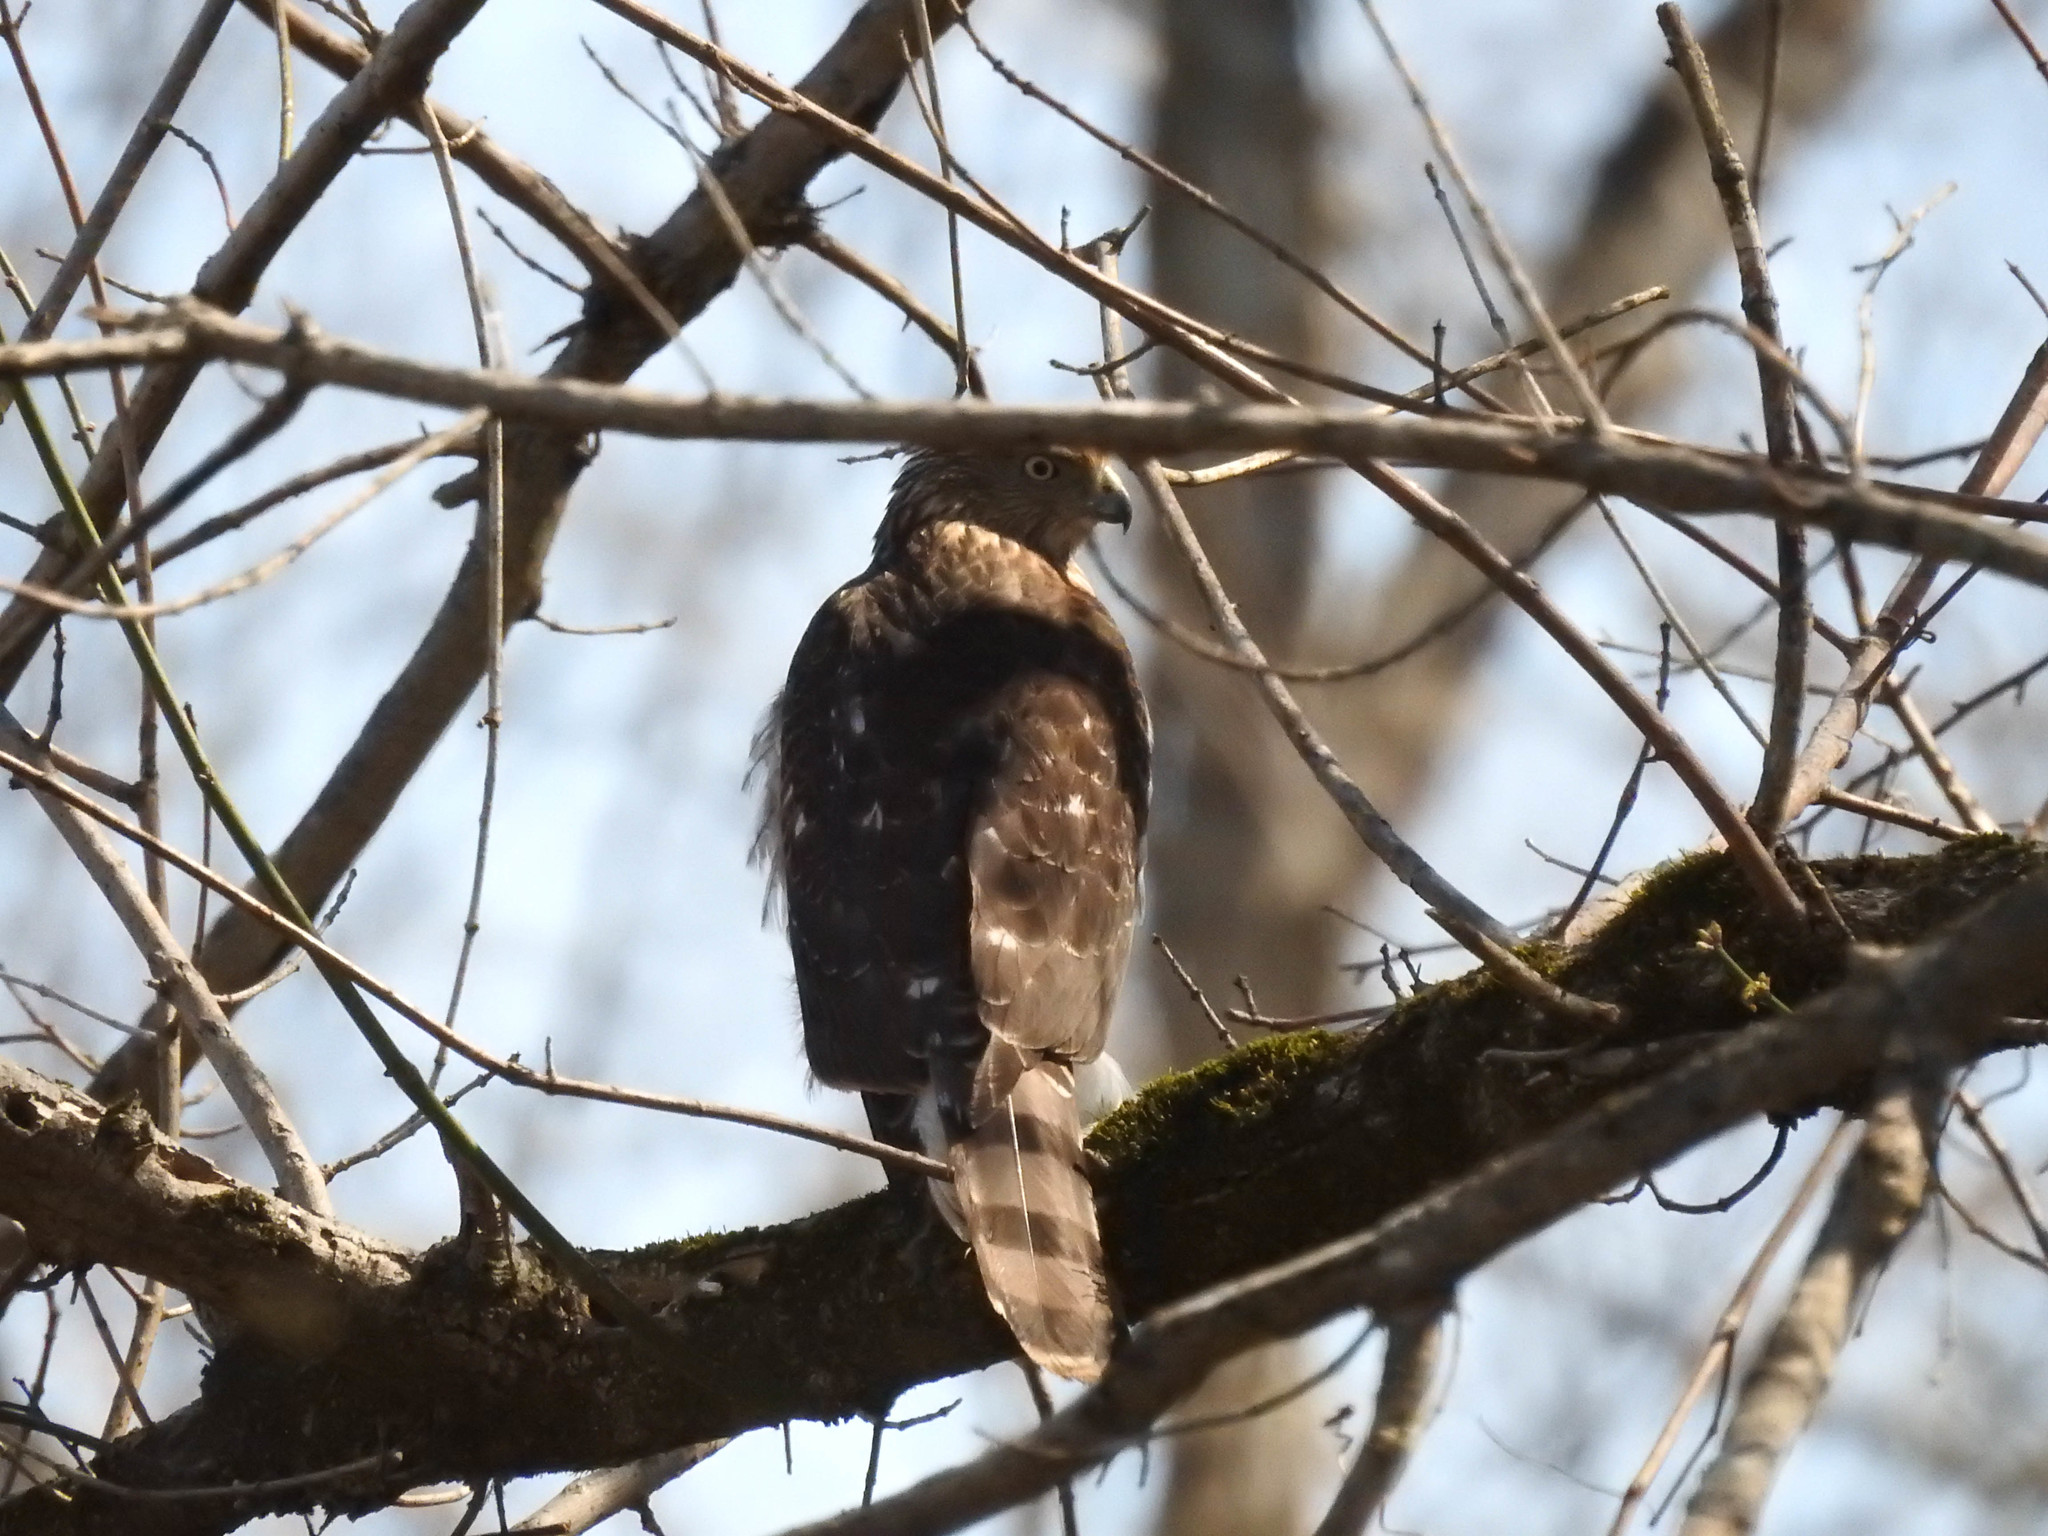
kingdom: Animalia
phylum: Chordata
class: Aves
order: Accipitriformes
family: Accipitridae
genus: Accipiter
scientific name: Accipiter cooperii
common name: Cooper's hawk
